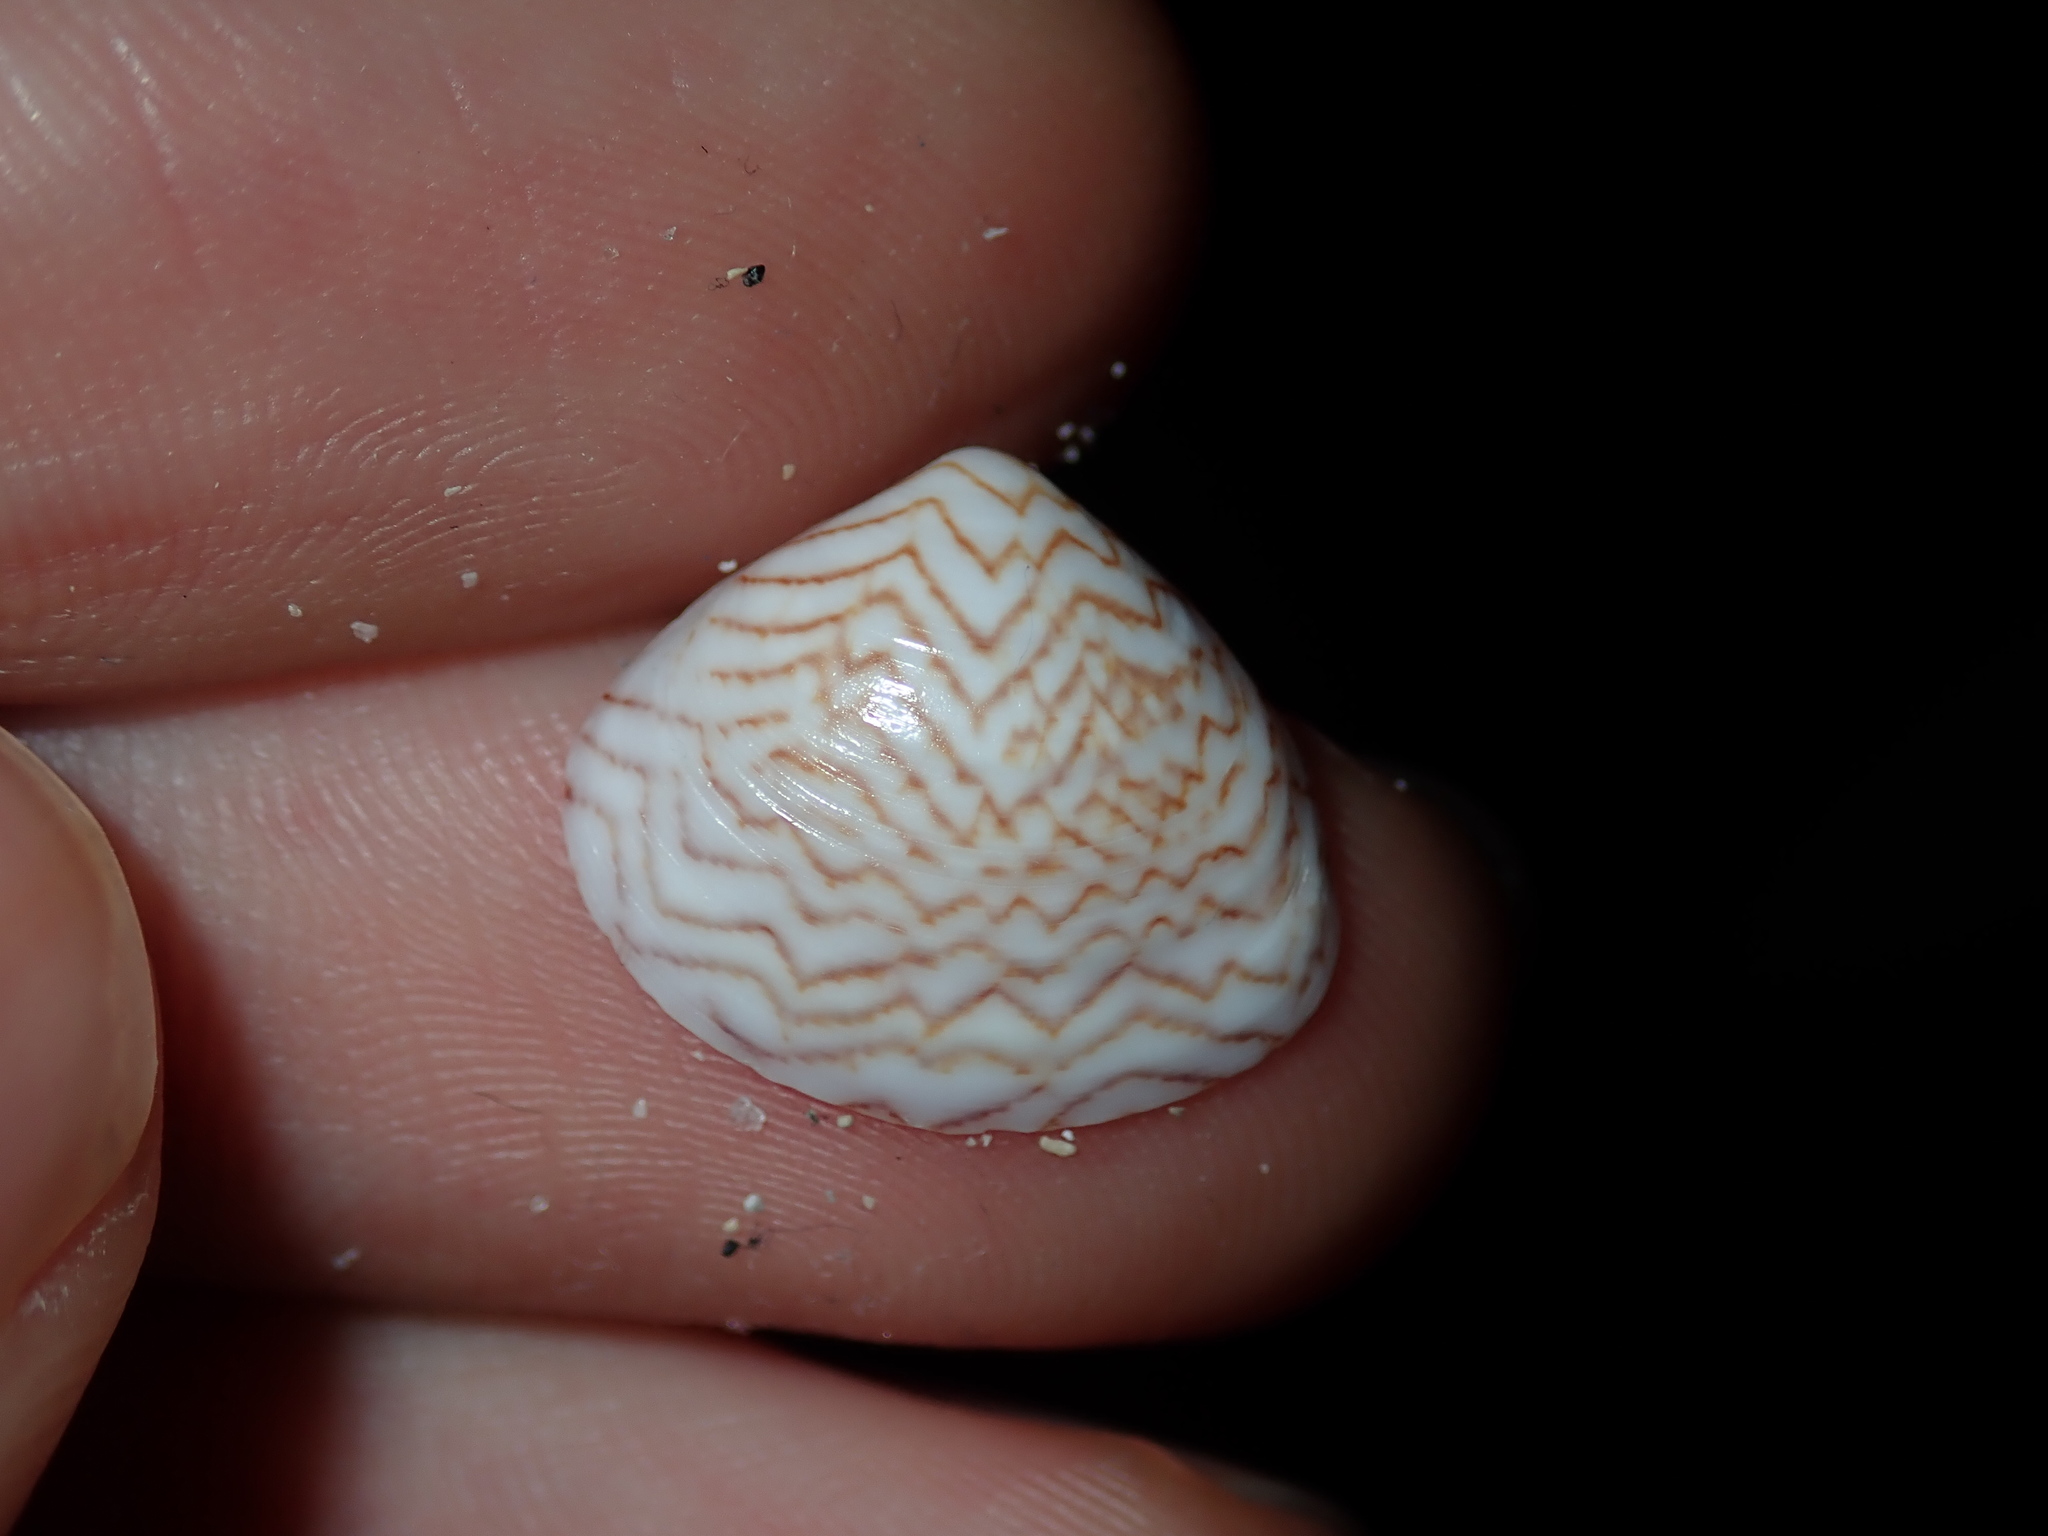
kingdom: Animalia
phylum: Mollusca
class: Bivalvia
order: Venerida
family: Veneridae
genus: Gomphina
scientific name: Gomphina undulosa
